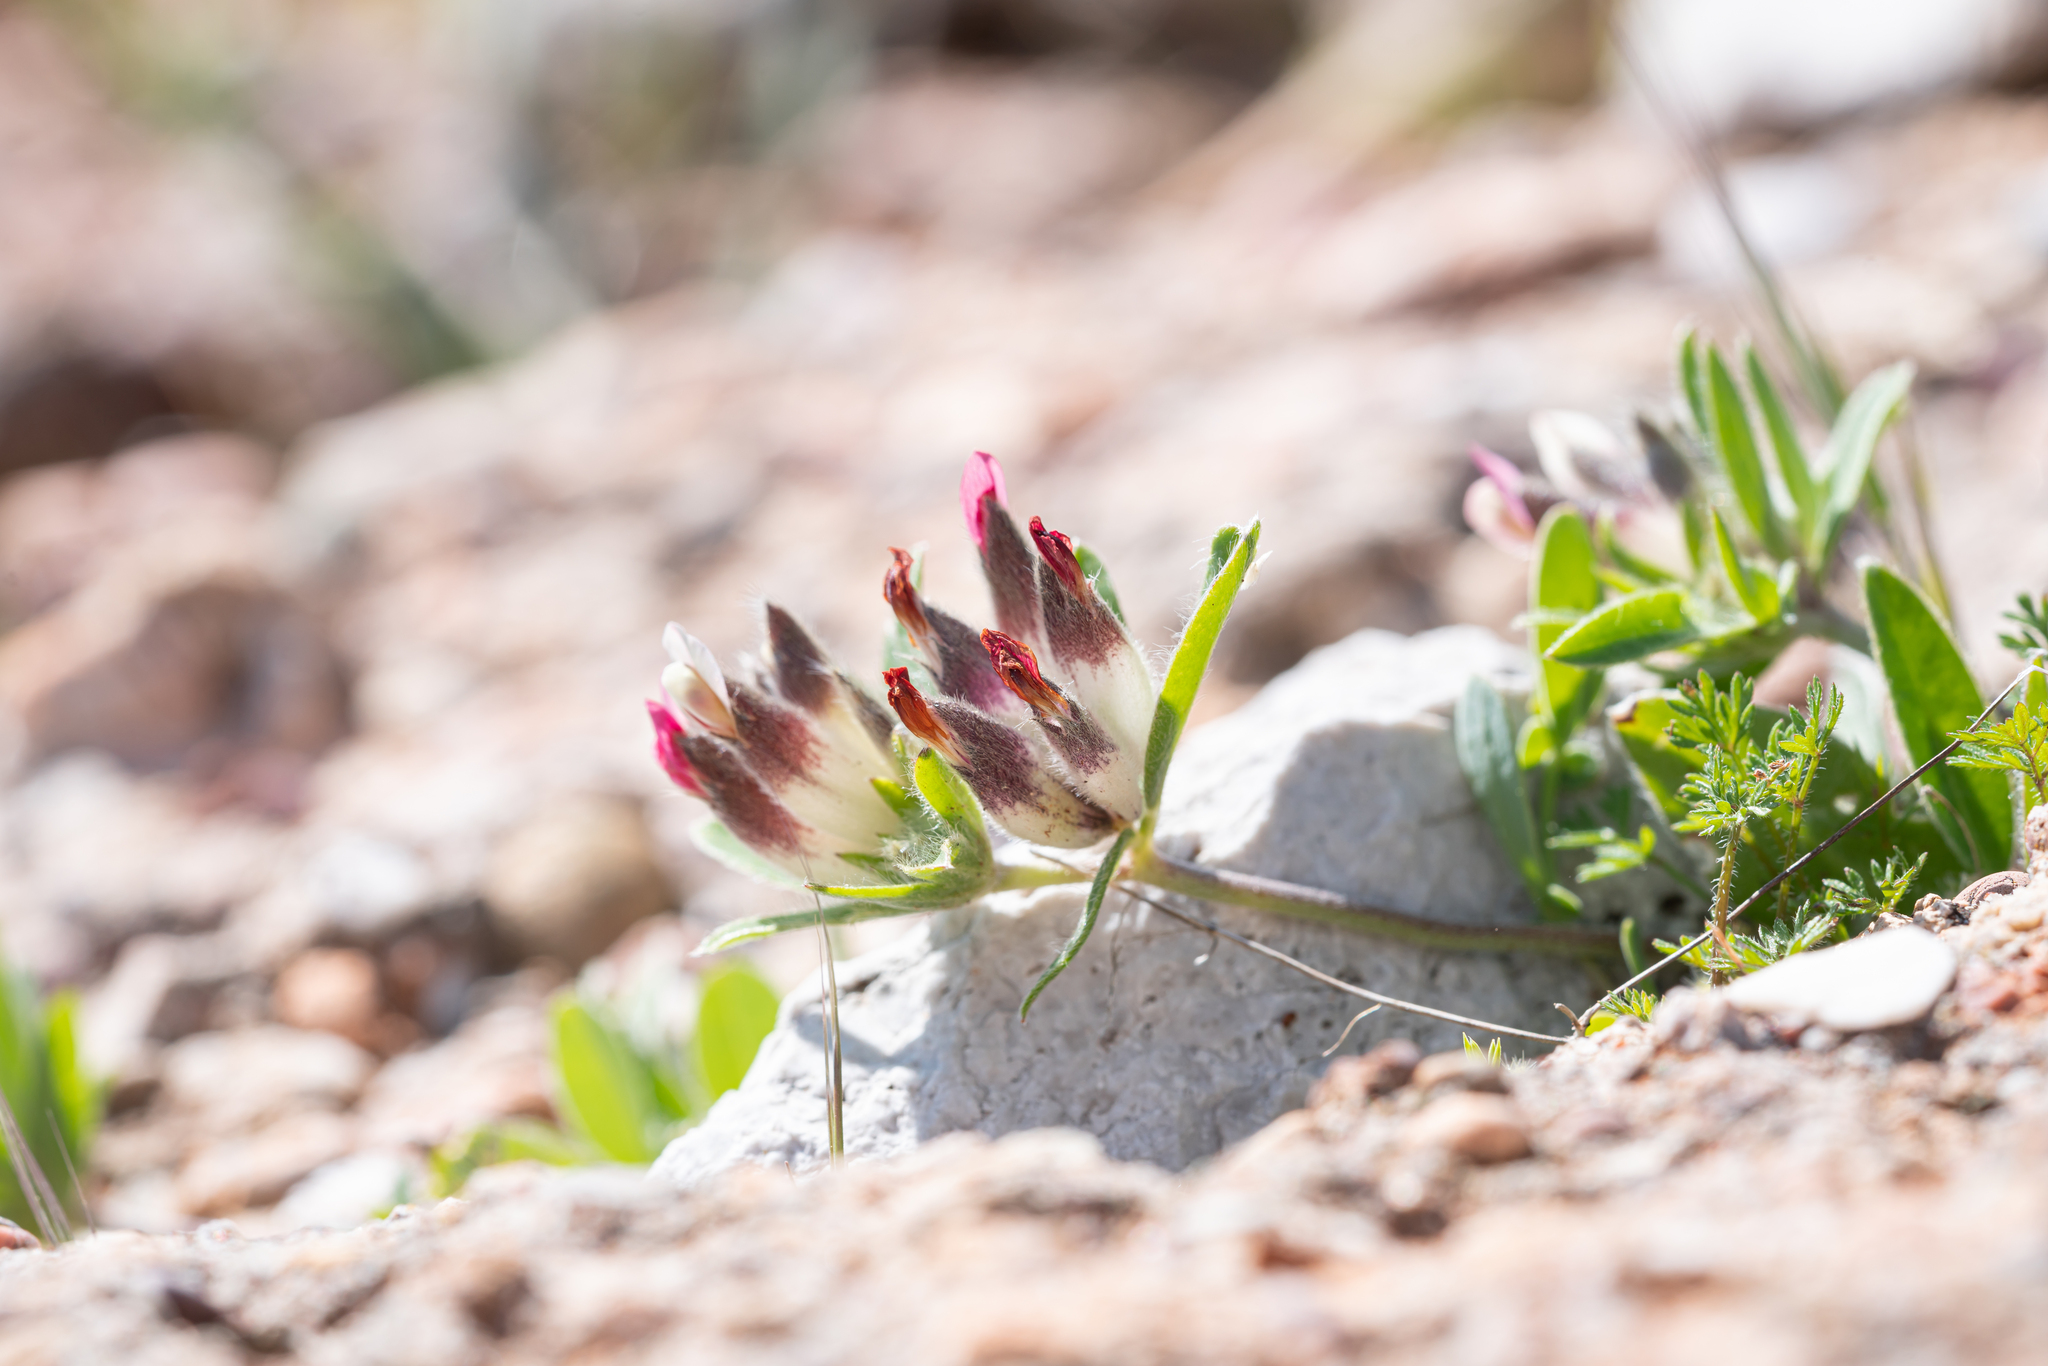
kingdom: Plantae
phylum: Tracheophyta
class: Magnoliopsida
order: Fabales
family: Fabaceae
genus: Anthyllis
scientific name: Anthyllis vulneraria
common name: Kidney vetch
